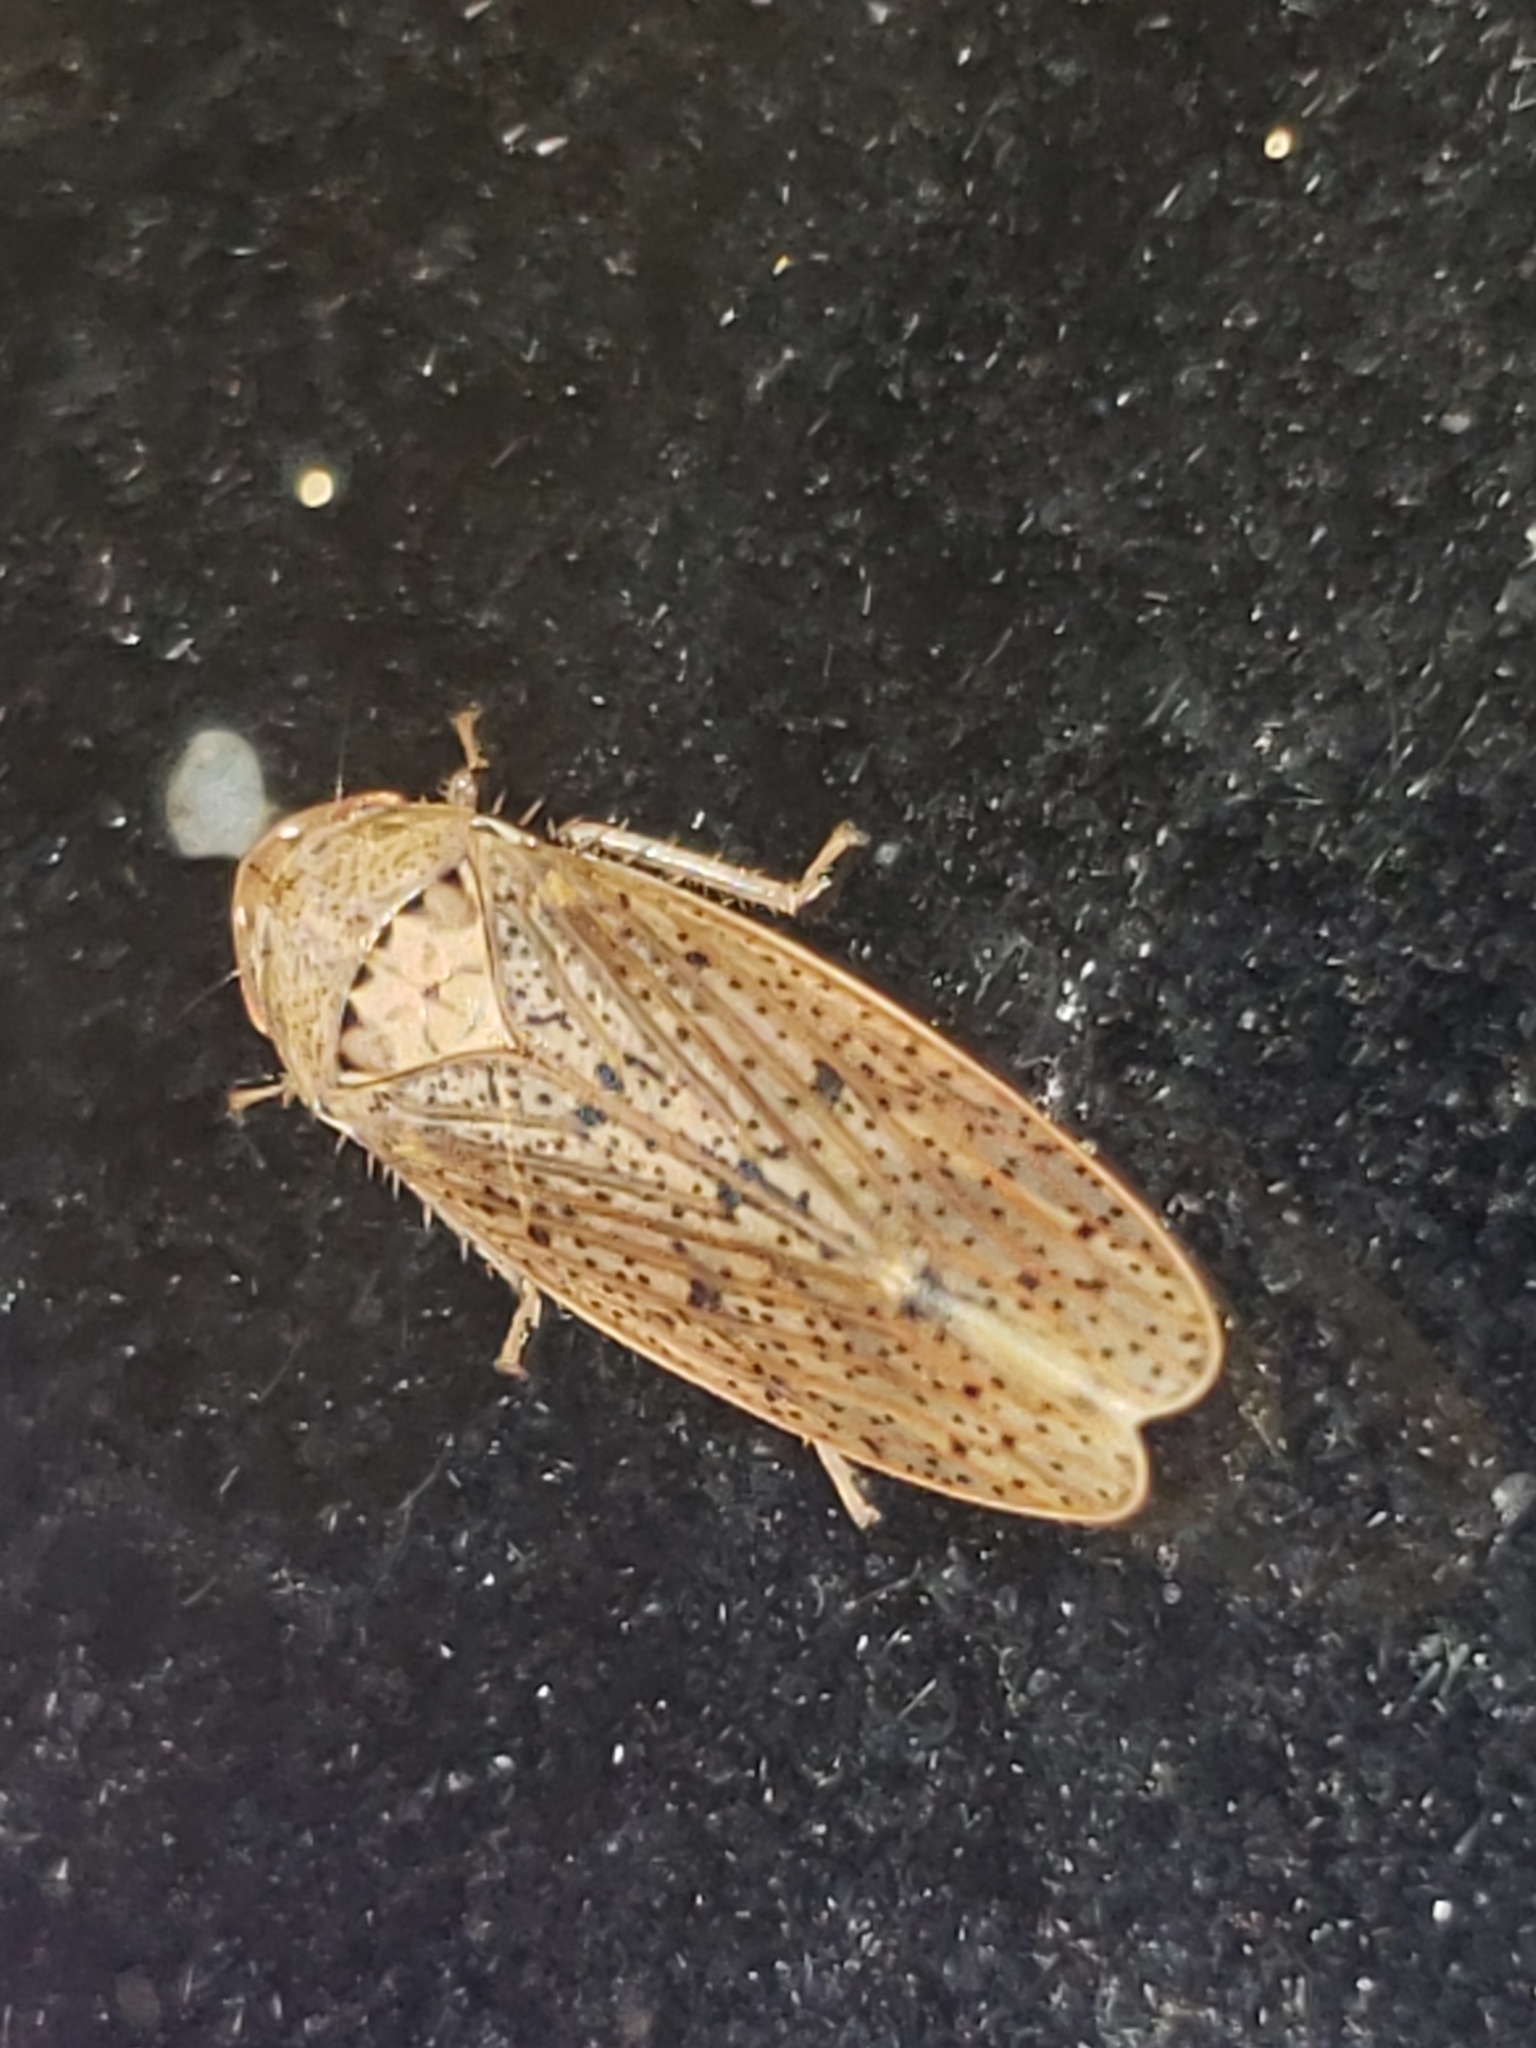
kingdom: Animalia
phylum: Arthropoda
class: Insecta
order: Hemiptera
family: Cicadellidae
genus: Ponana
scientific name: Ponana puncticollis
